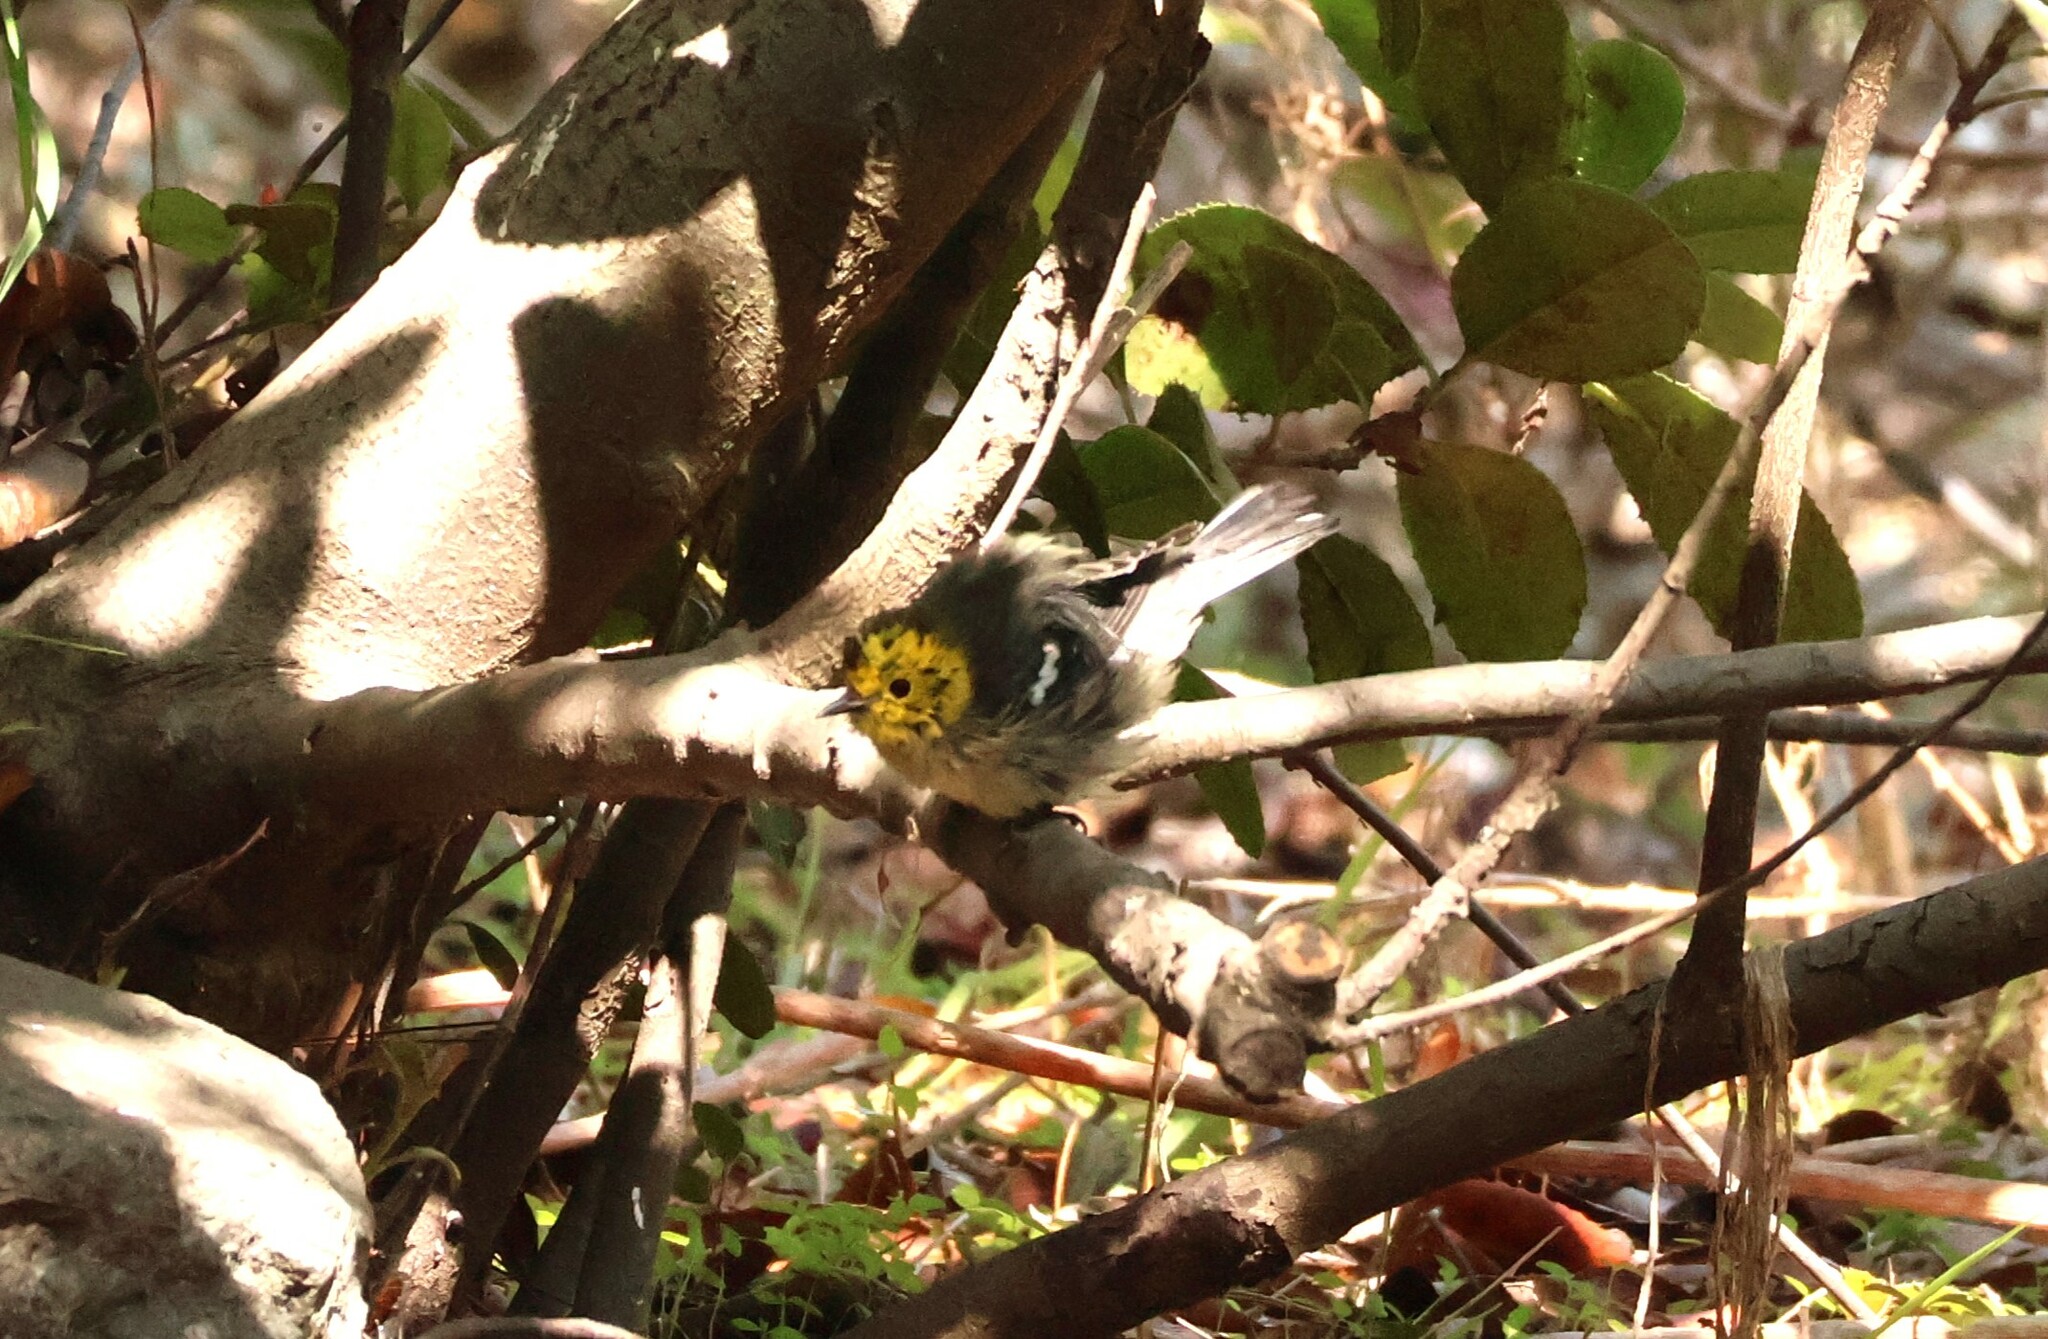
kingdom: Animalia
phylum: Chordata
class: Aves
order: Passeriformes
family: Parulidae
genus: Setophaga
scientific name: Setophaga occidentalis
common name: Hermit warbler
